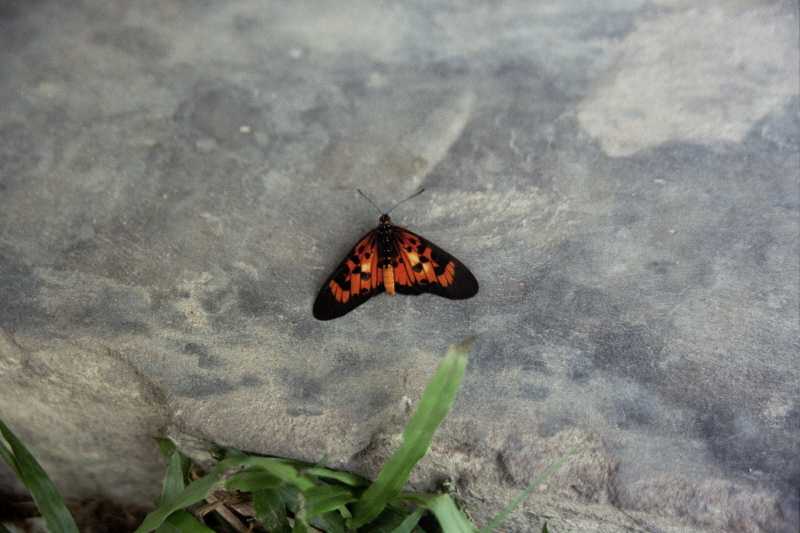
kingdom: Animalia
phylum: Arthropoda
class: Insecta
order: Lepidoptera
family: Nymphalidae
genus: Rubraea
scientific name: Rubraea
